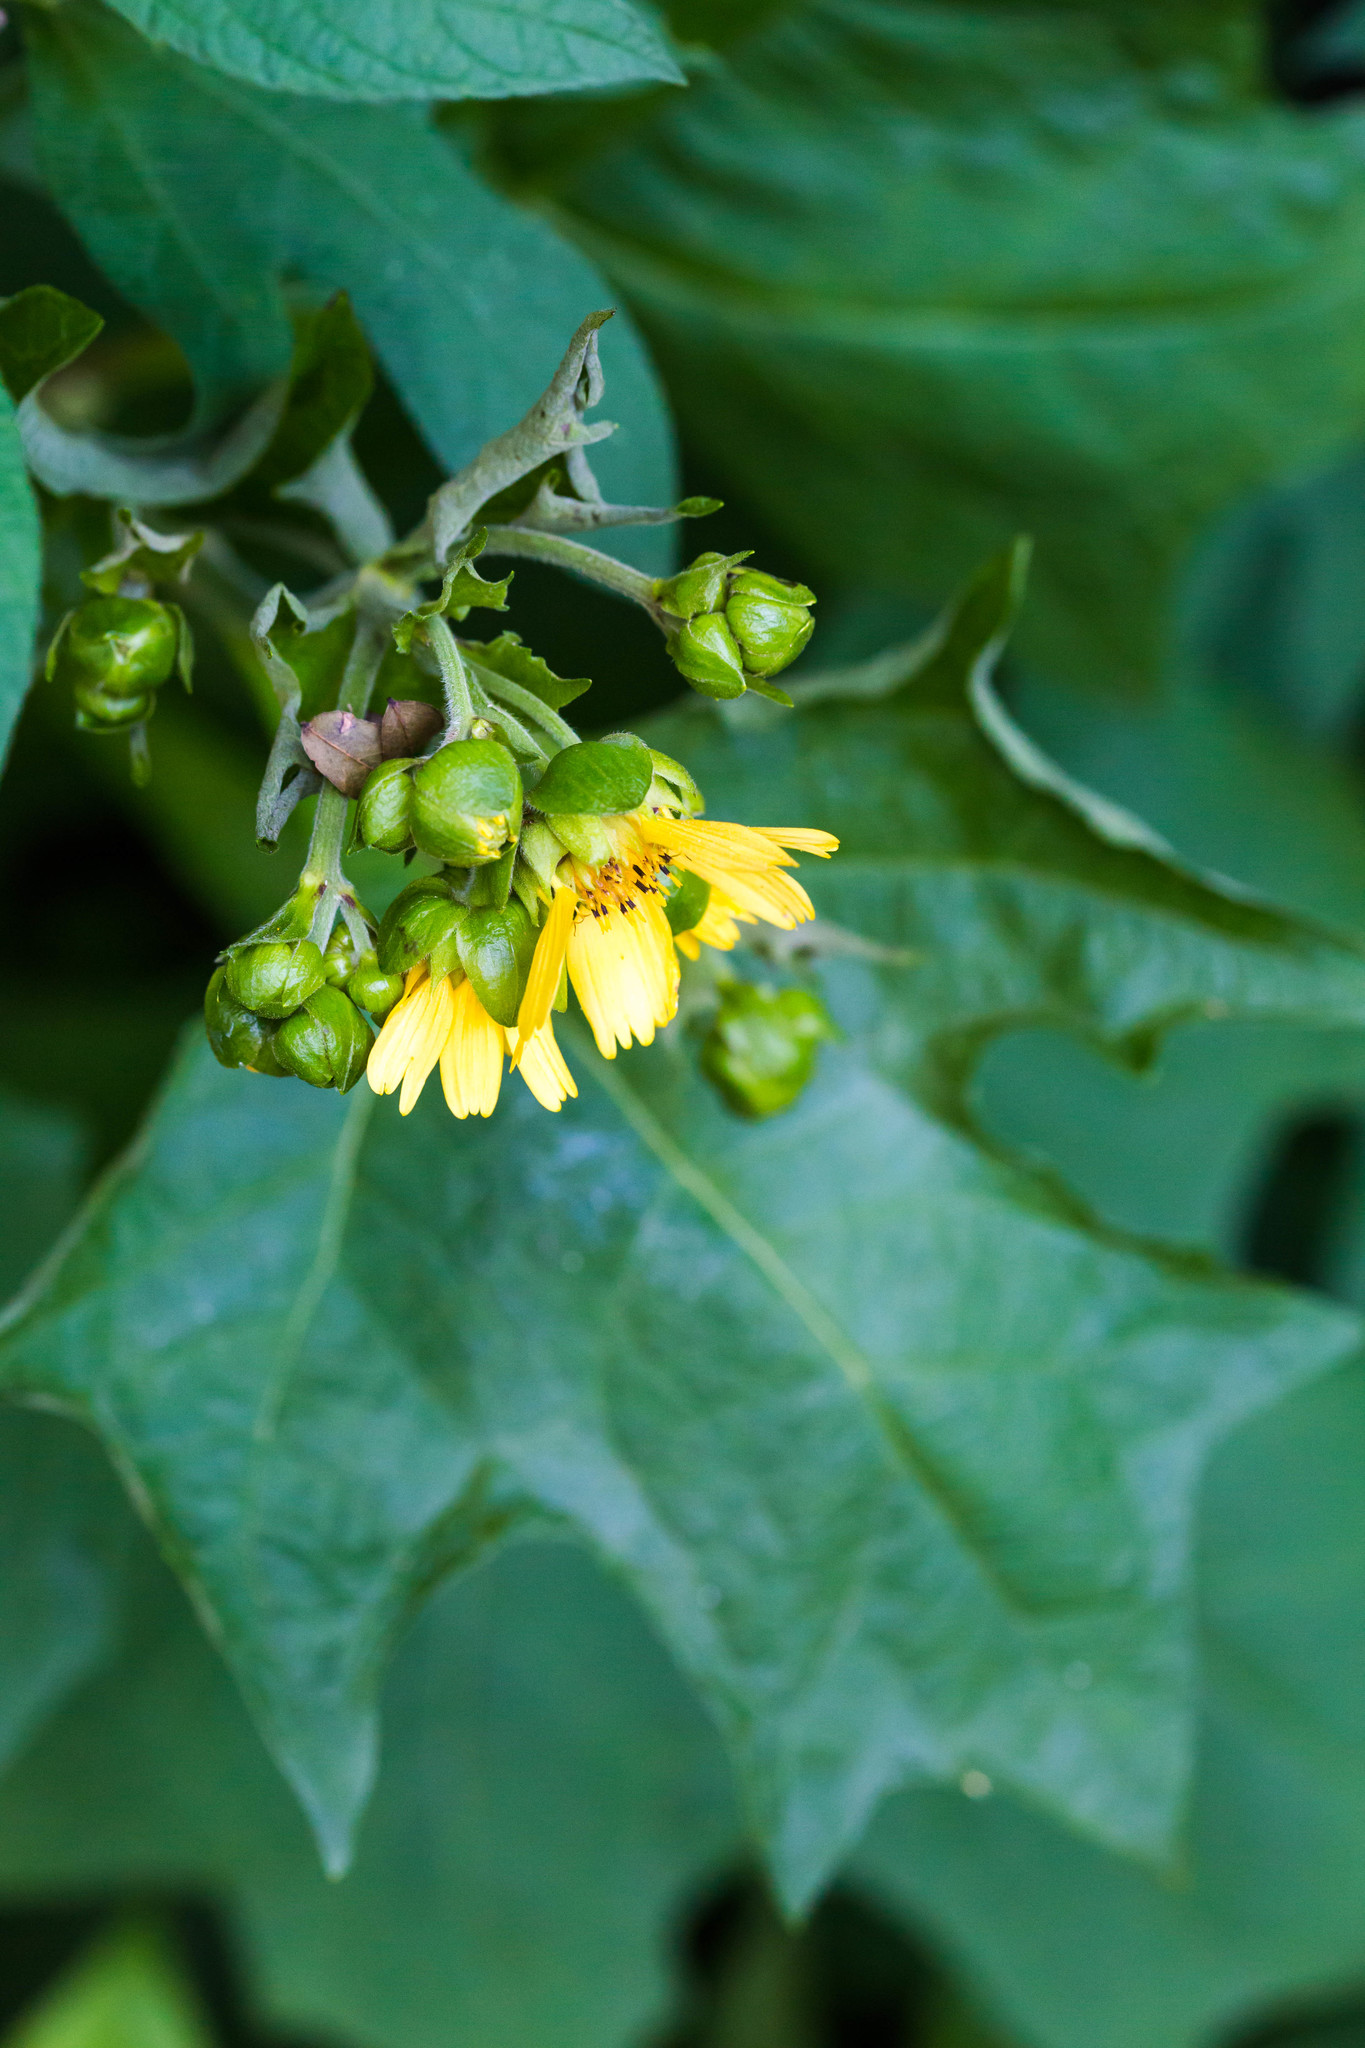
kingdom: Plantae
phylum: Tracheophyta
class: Magnoliopsida
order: Asterales
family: Asteraceae
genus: Smallanthus
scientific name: Smallanthus uvedalia
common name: Bear's-foot
